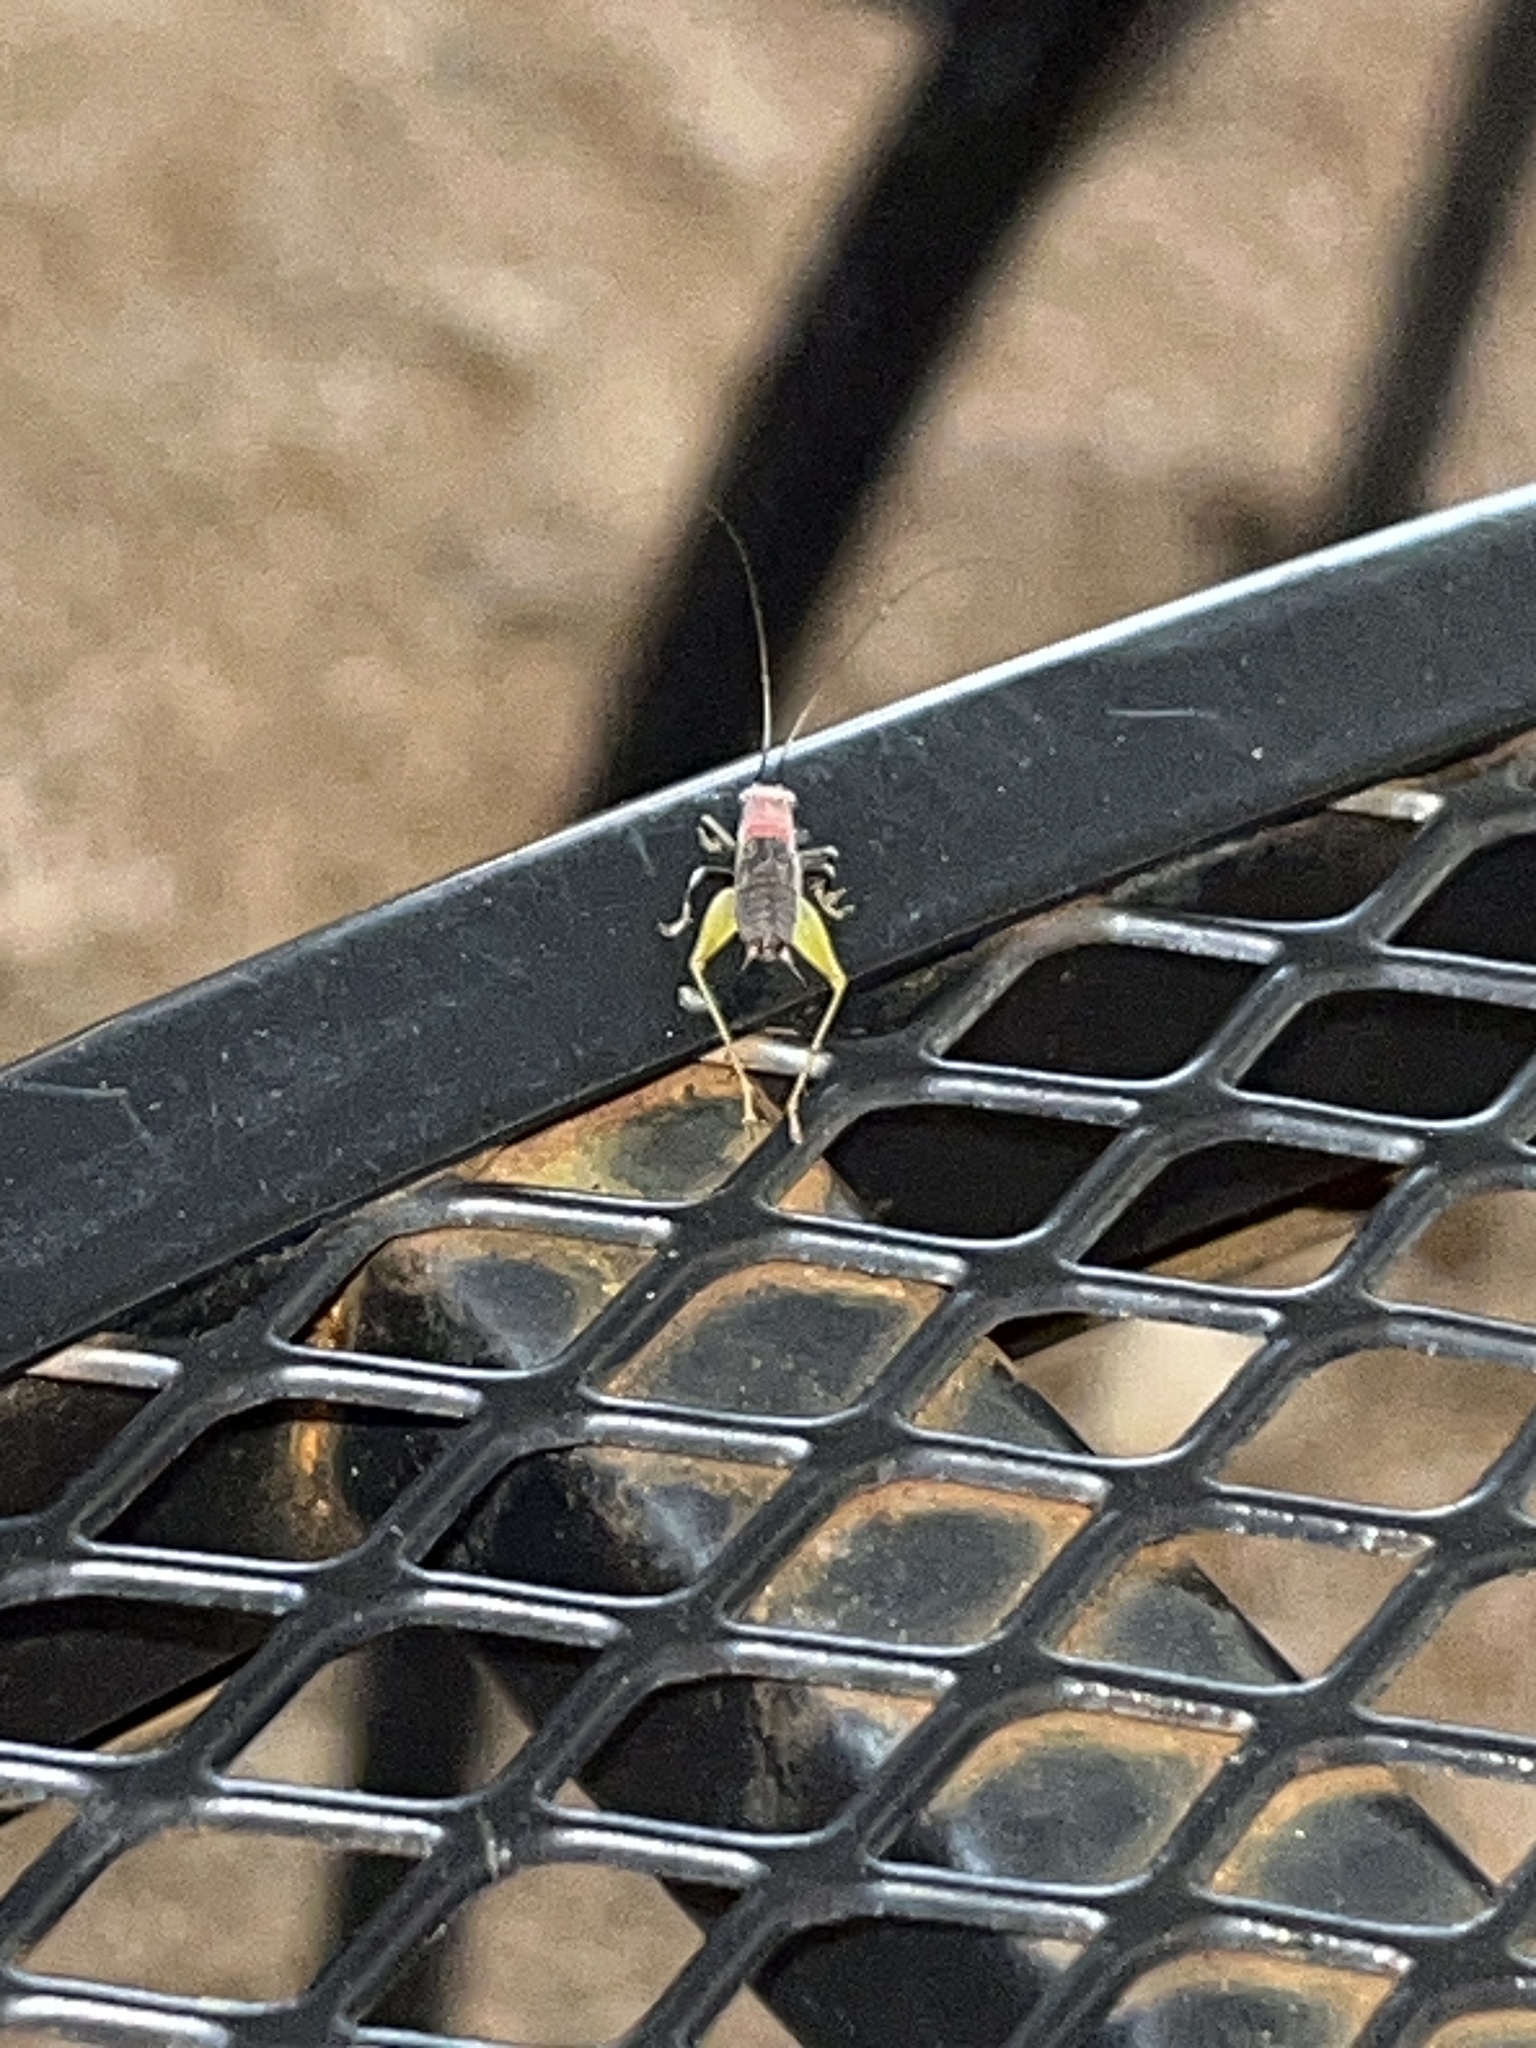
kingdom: Animalia
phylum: Arthropoda
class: Insecta
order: Orthoptera
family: Trigonidiidae
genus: Phyllopalpus
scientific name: Phyllopalpus pulchellus
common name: Handsome trig
